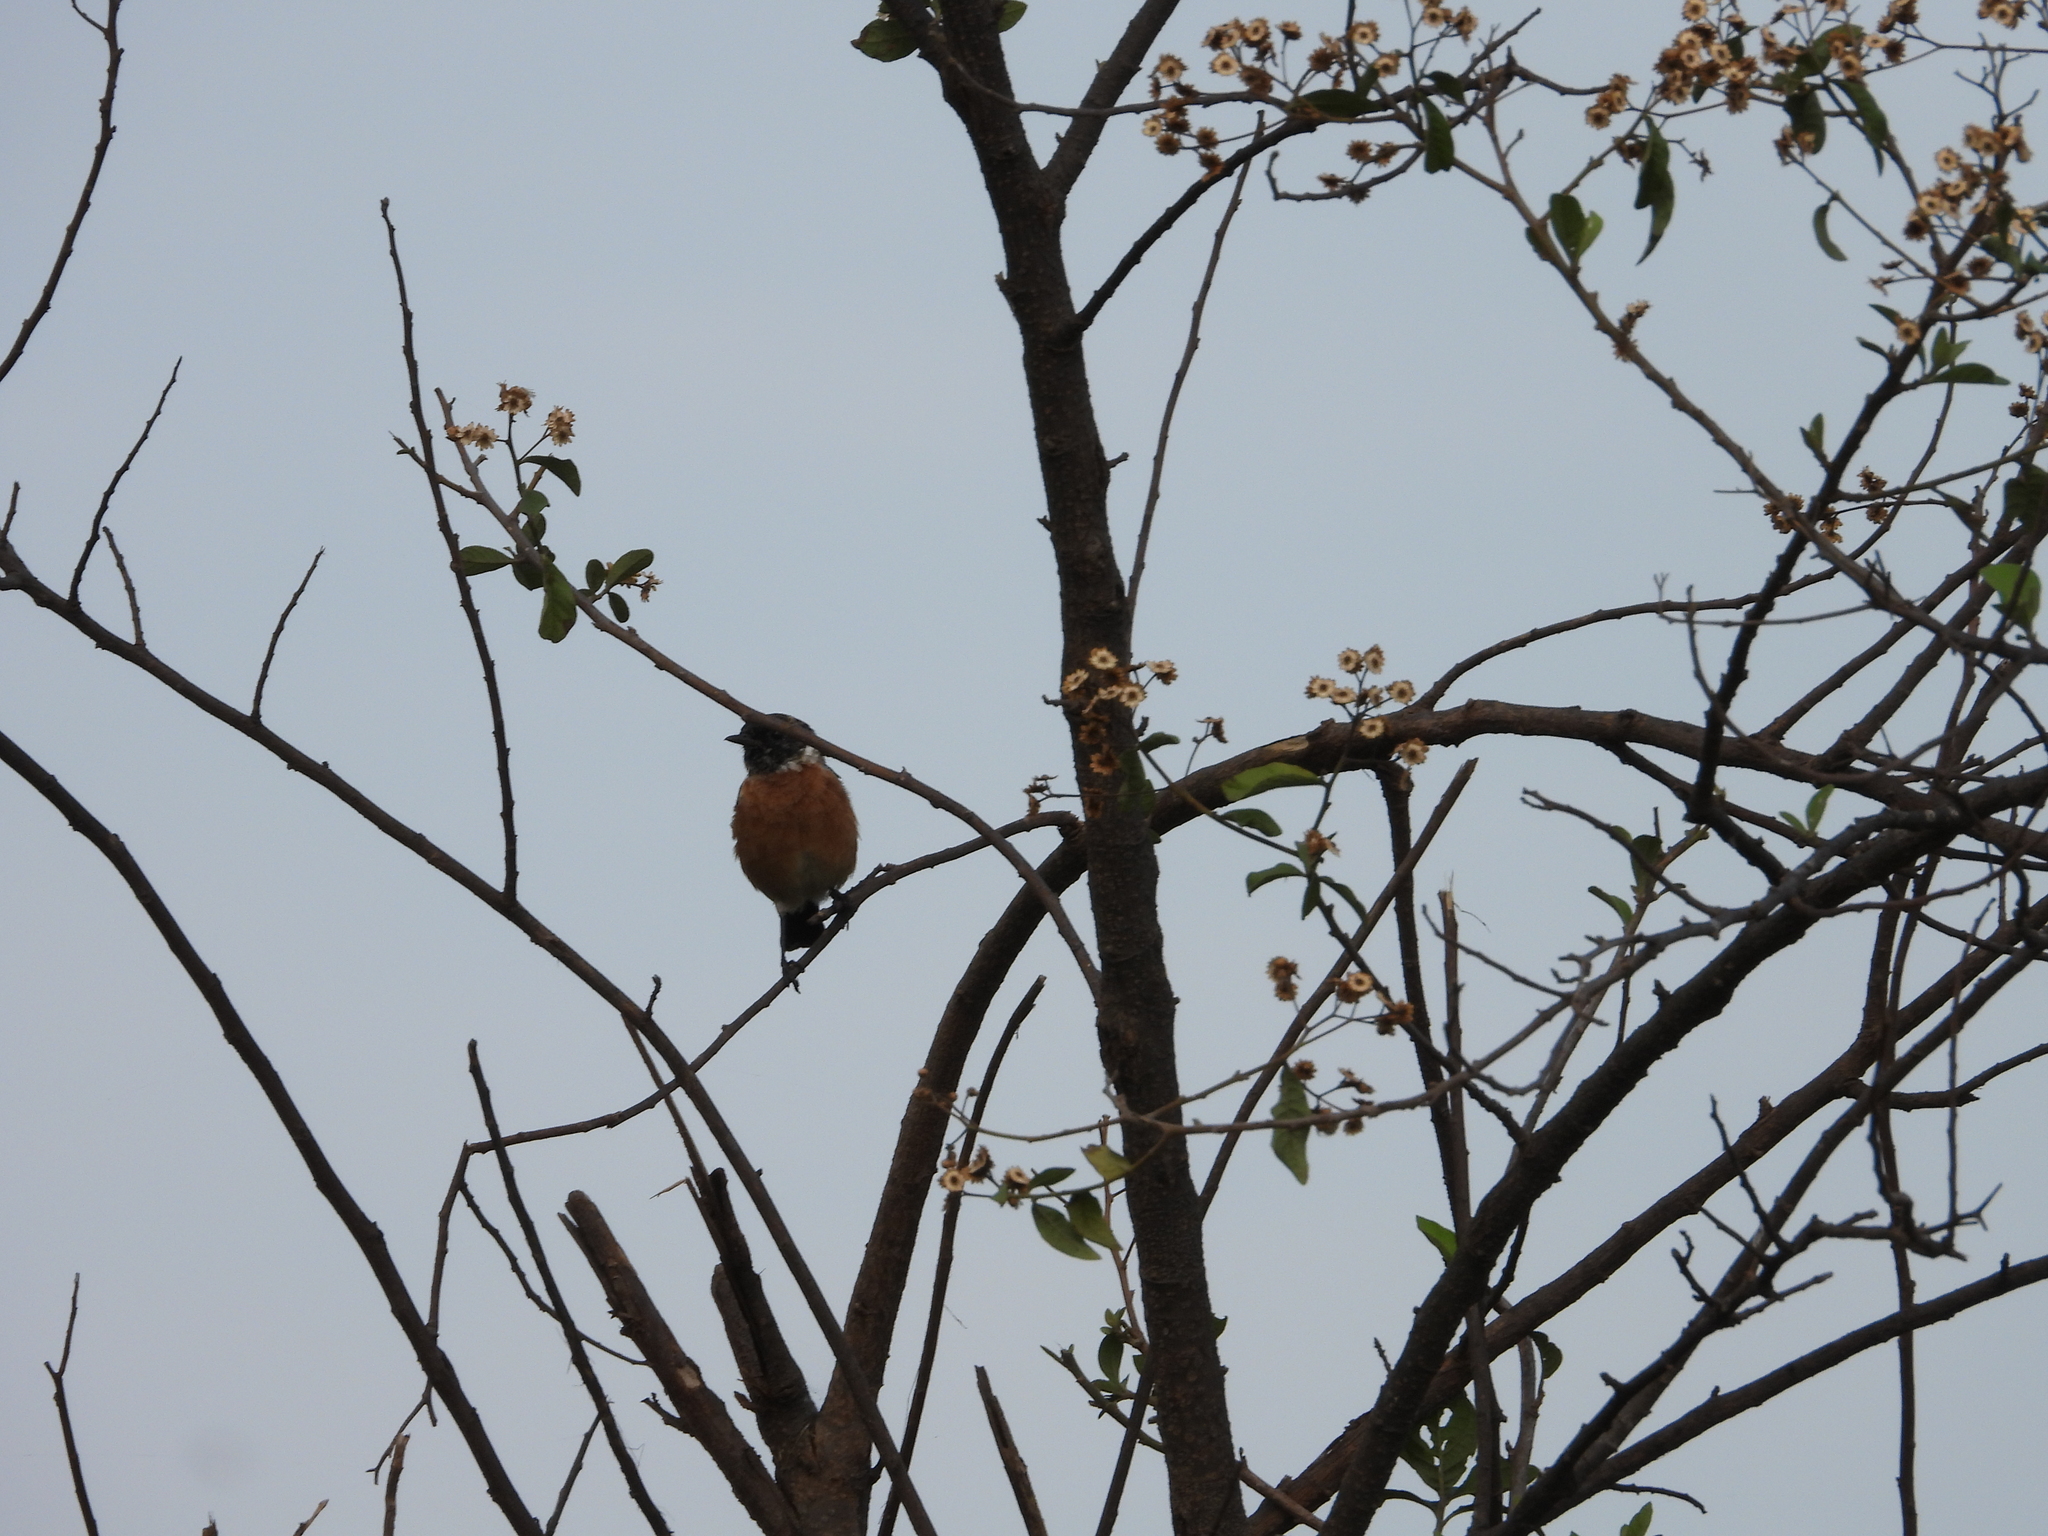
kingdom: Animalia
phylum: Chordata
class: Aves
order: Passeriformes
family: Muscicapidae
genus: Saxicola
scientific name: Saxicola torquatus
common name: African stonechat
